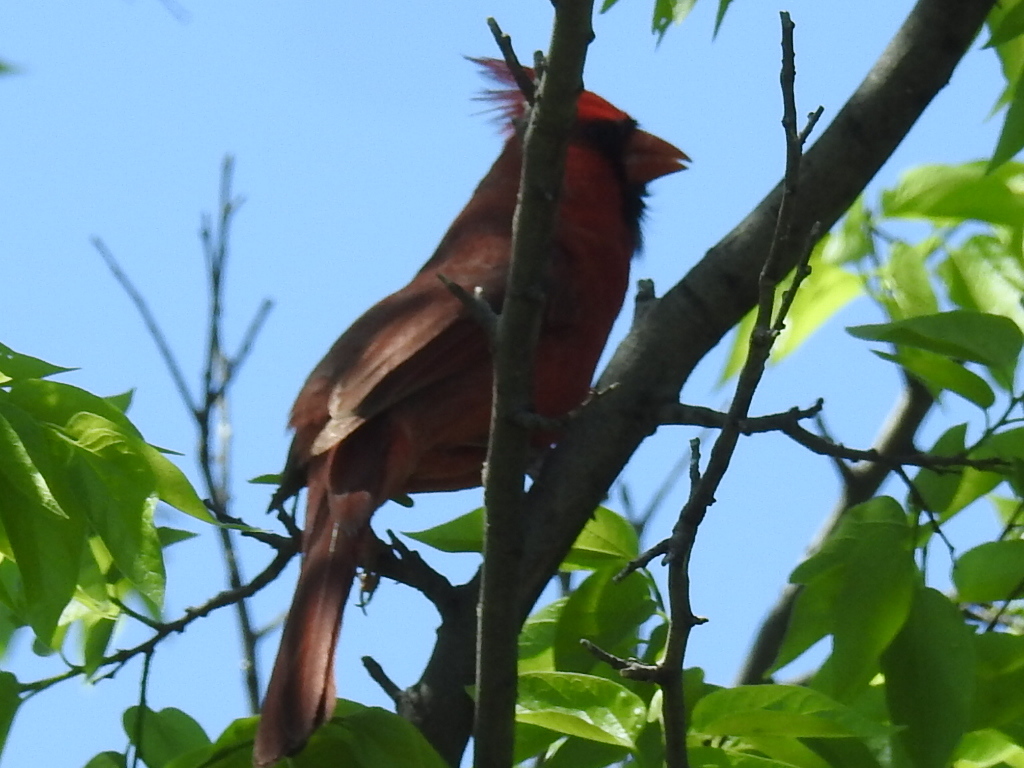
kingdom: Animalia
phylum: Chordata
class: Aves
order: Passeriformes
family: Cardinalidae
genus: Cardinalis
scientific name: Cardinalis cardinalis
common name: Northern cardinal
